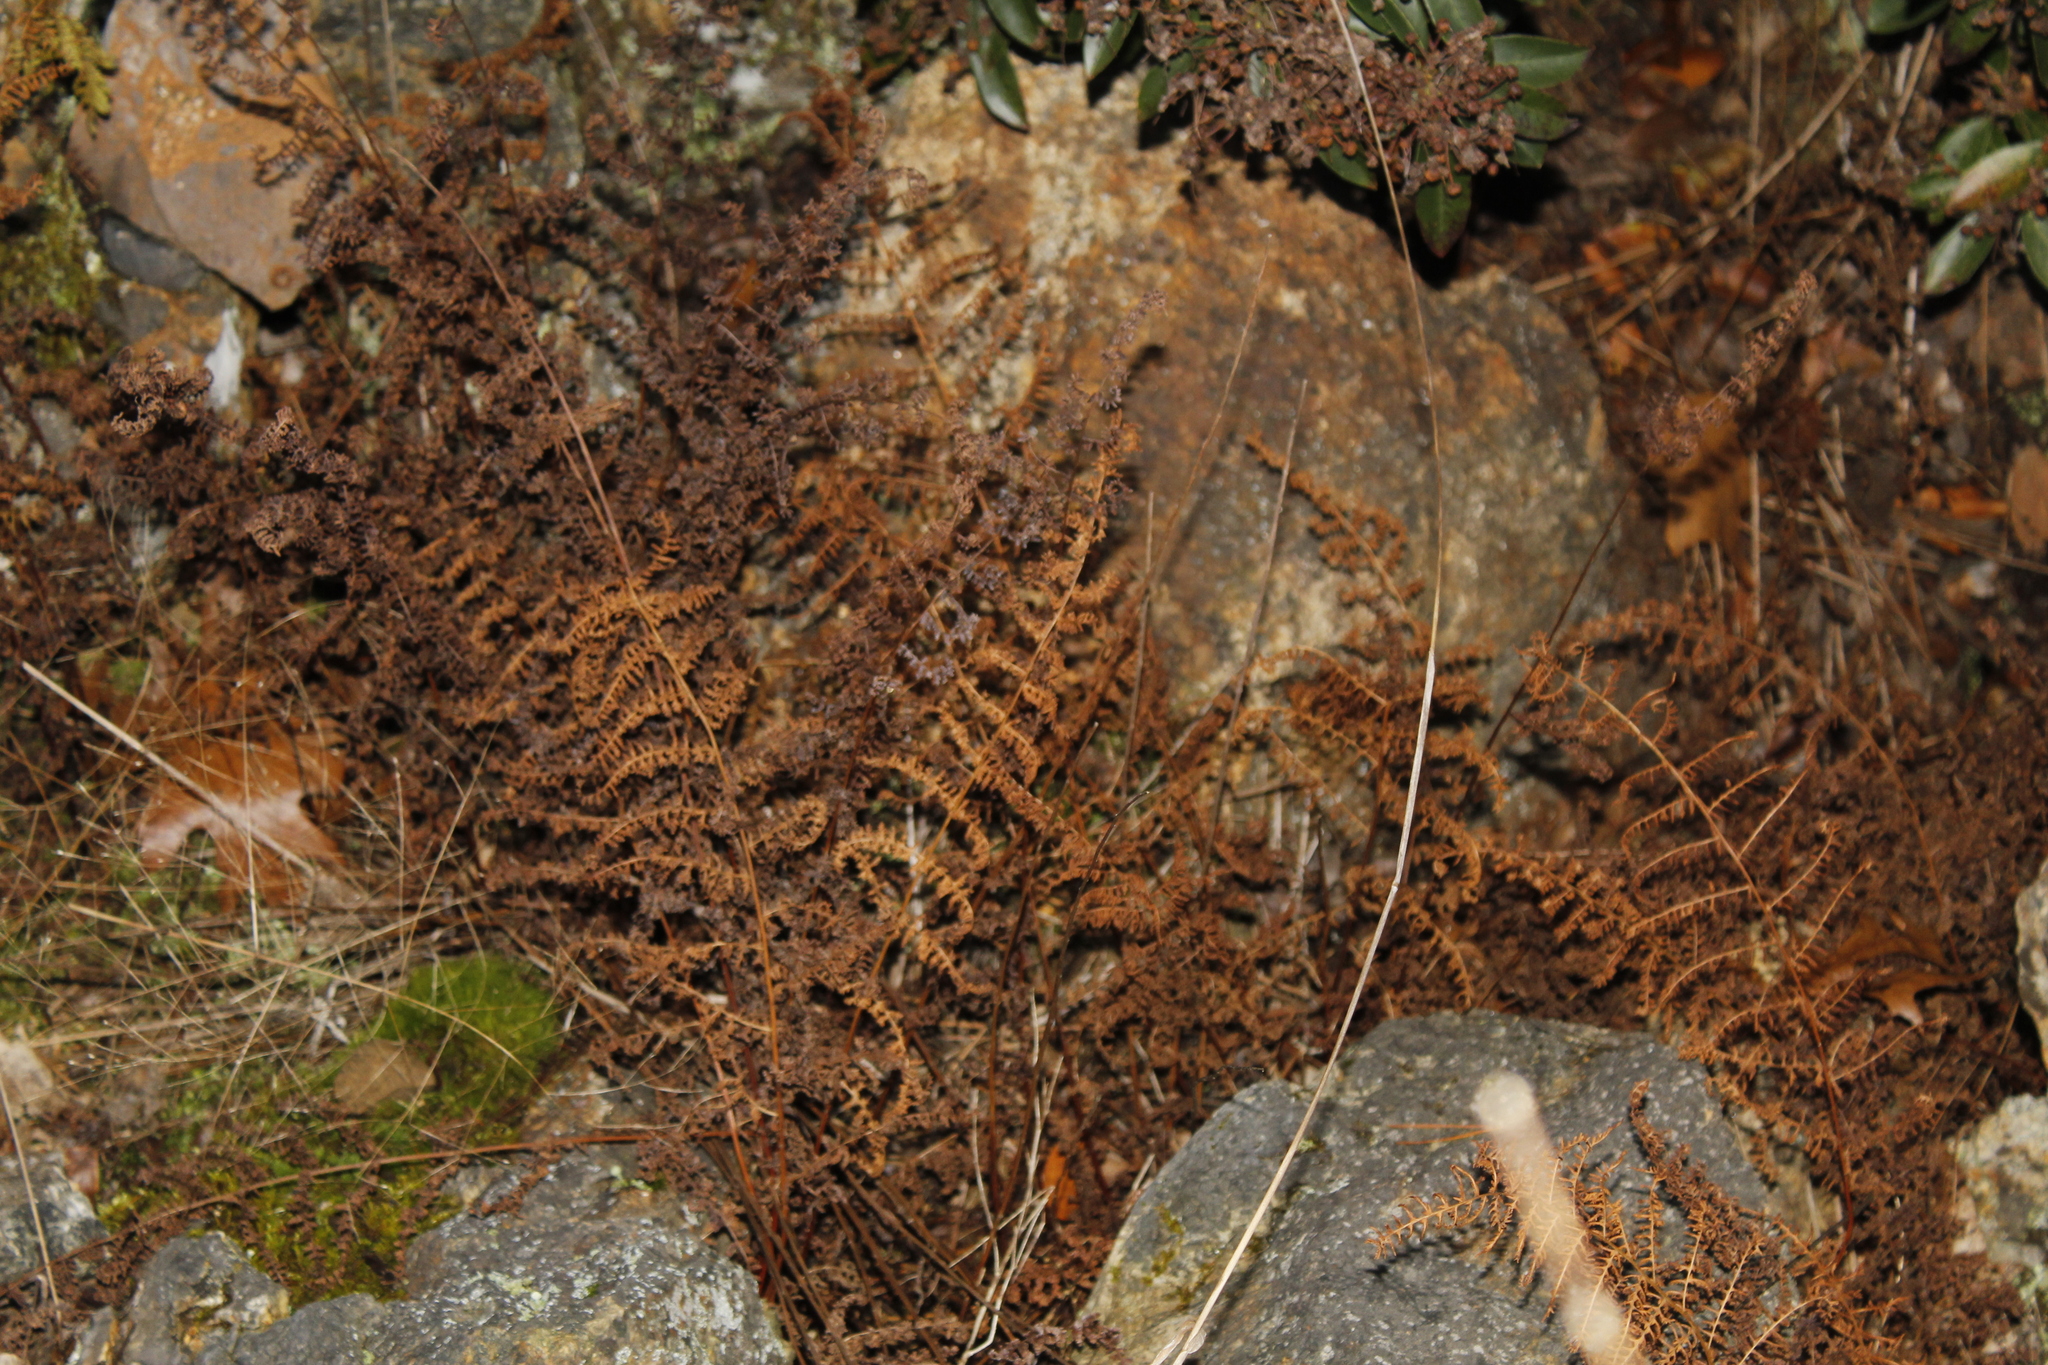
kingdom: Plantae
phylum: Tracheophyta
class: Polypodiopsida
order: Polypodiales
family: Dennstaedtiaceae
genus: Sitobolium
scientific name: Sitobolium punctilobum
